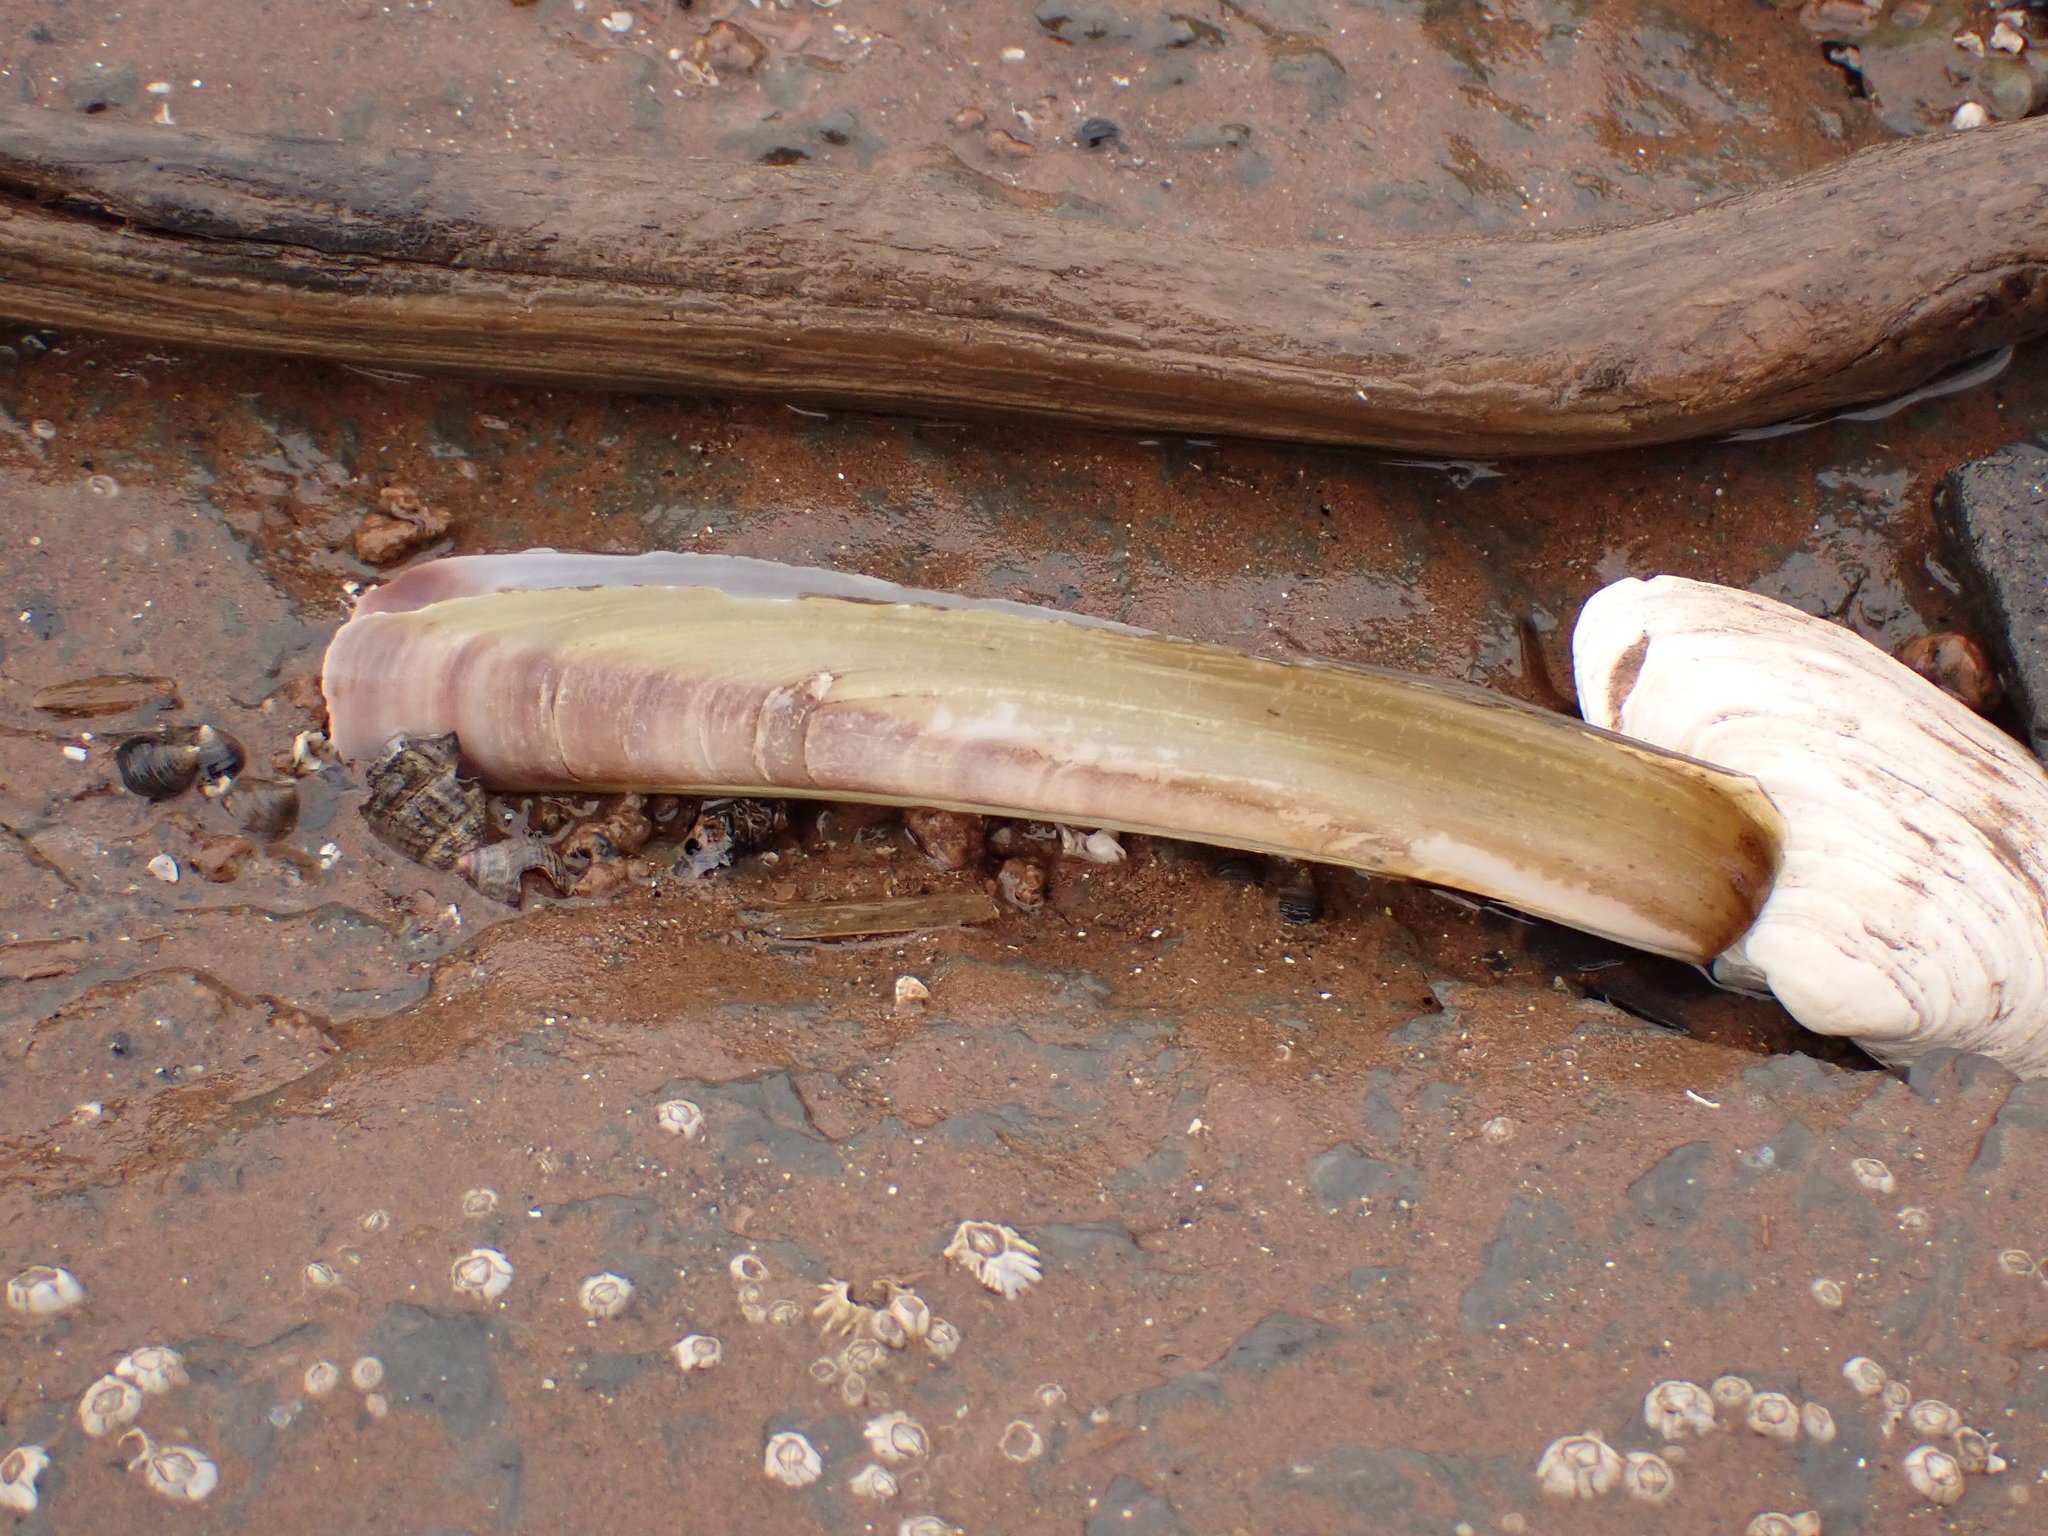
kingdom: Animalia
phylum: Mollusca
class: Bivalvia
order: Adapedonta
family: Pharidae
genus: Ensis
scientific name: Ensis leei
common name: American jack knife clam
